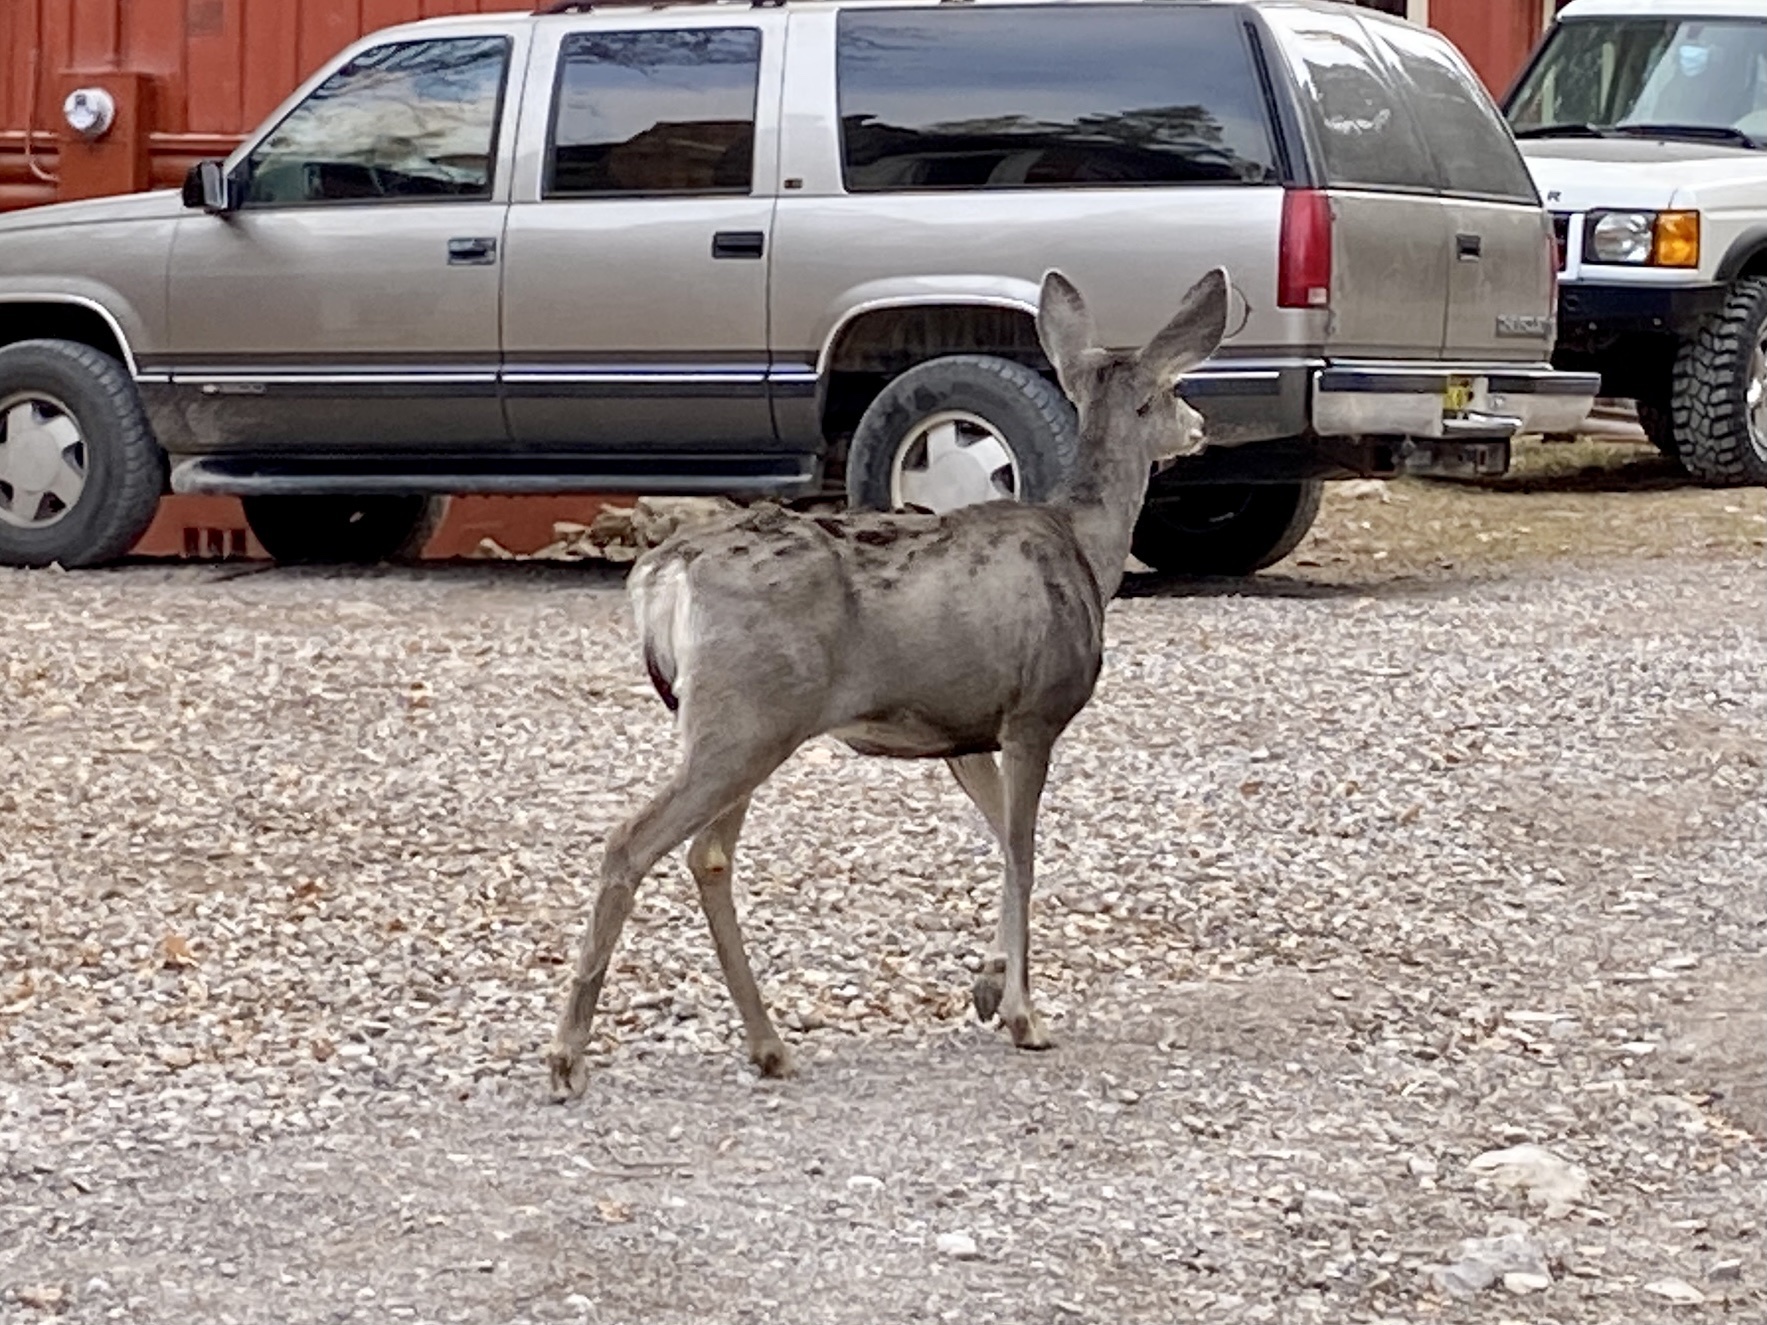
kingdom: Animalia
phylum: Chordata
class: Mammalia
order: Artiodactyla
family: Cervidae
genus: Odocoileus
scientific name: Odocoileus hemionus
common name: Mule deer
